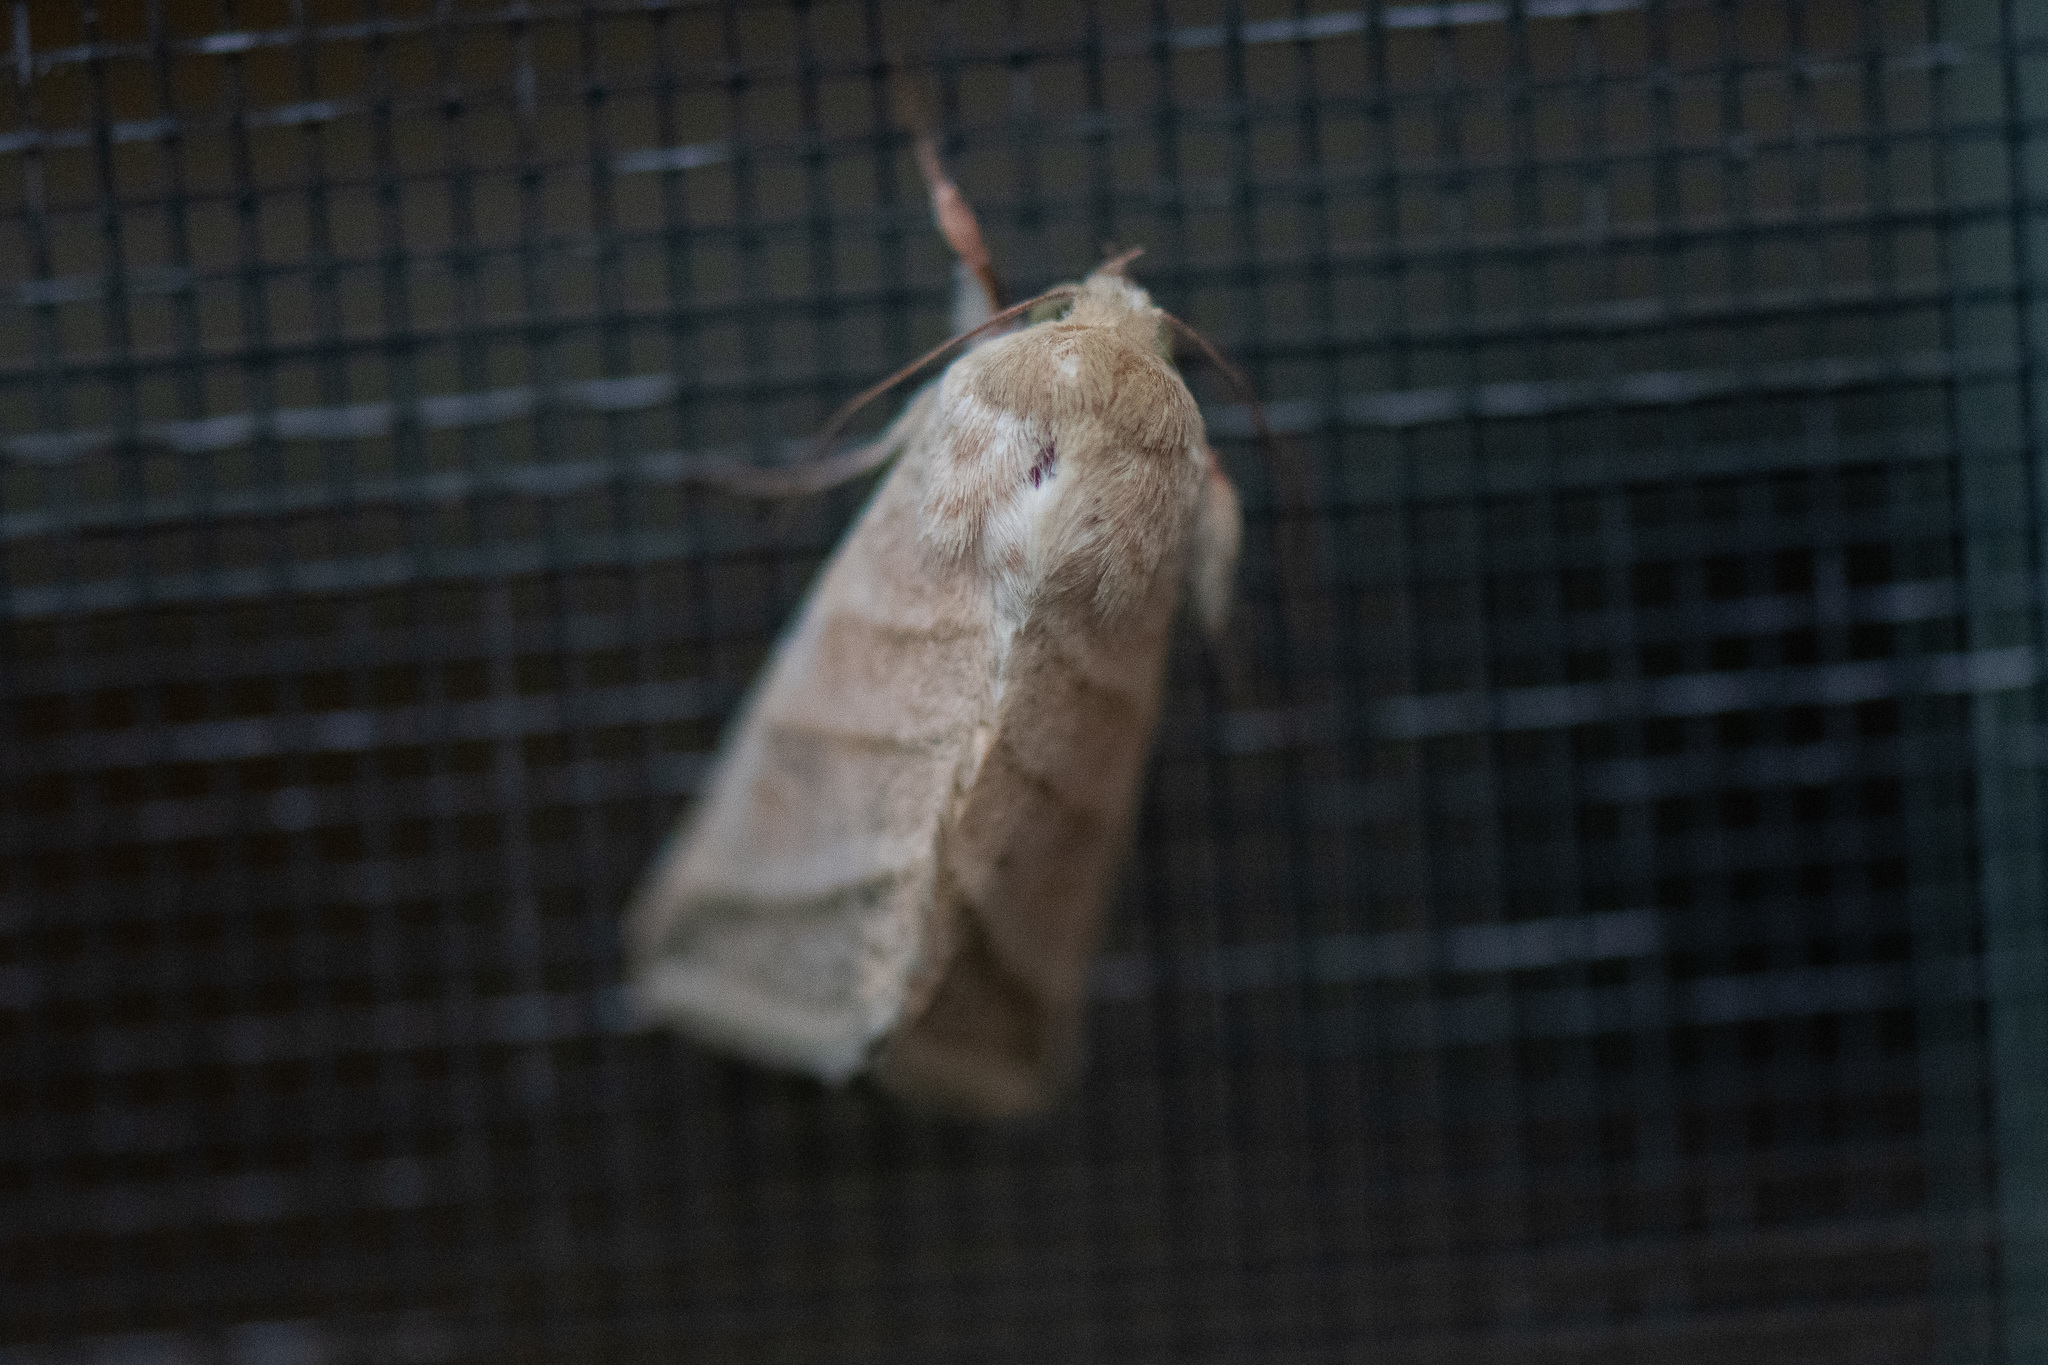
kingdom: Animalia
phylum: Arthropoda
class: Insecta
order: Lepidoptera
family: Noctuidae
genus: Chloridea
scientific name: Chloridea virescens
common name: Tobacco budworm
